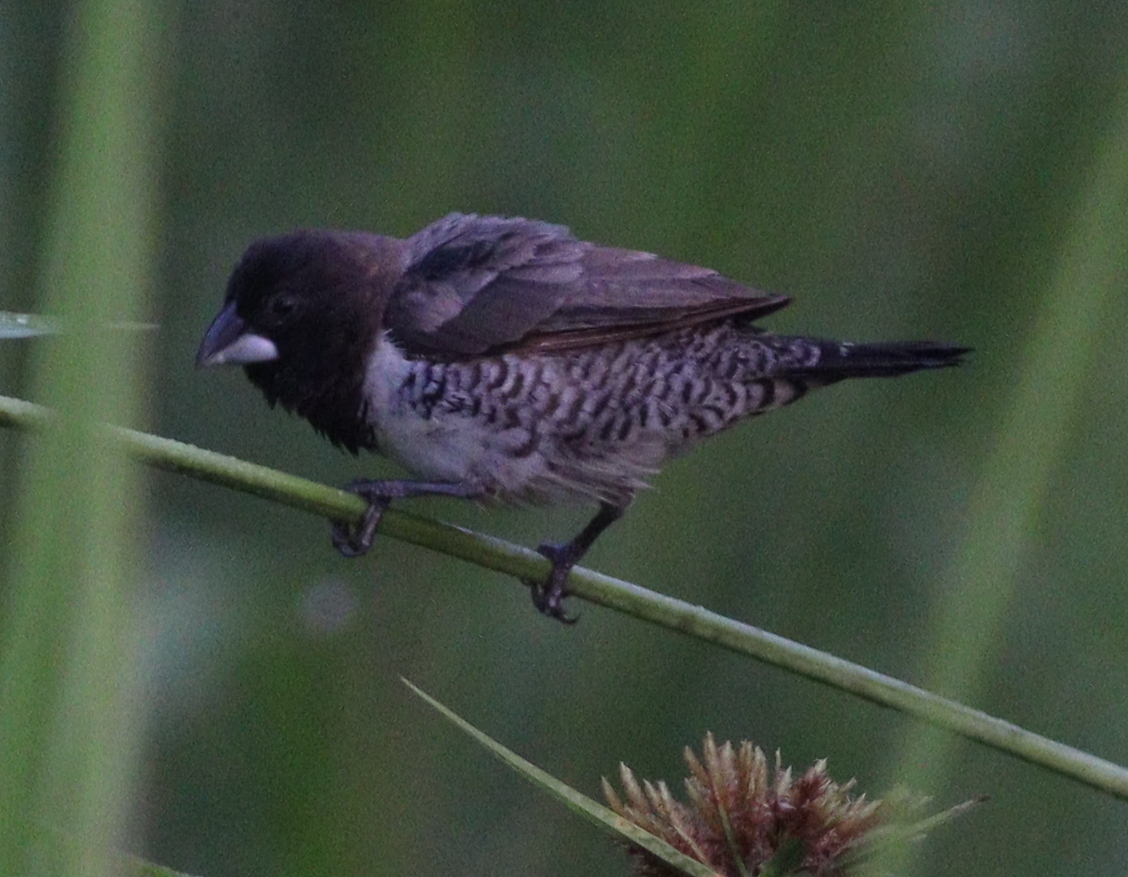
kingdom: Animalia
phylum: Chordata
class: Aves
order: Passeriformes
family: Estrildidae
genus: Lonchura
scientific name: Lonchura cucullata
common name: Bronze mannikin
